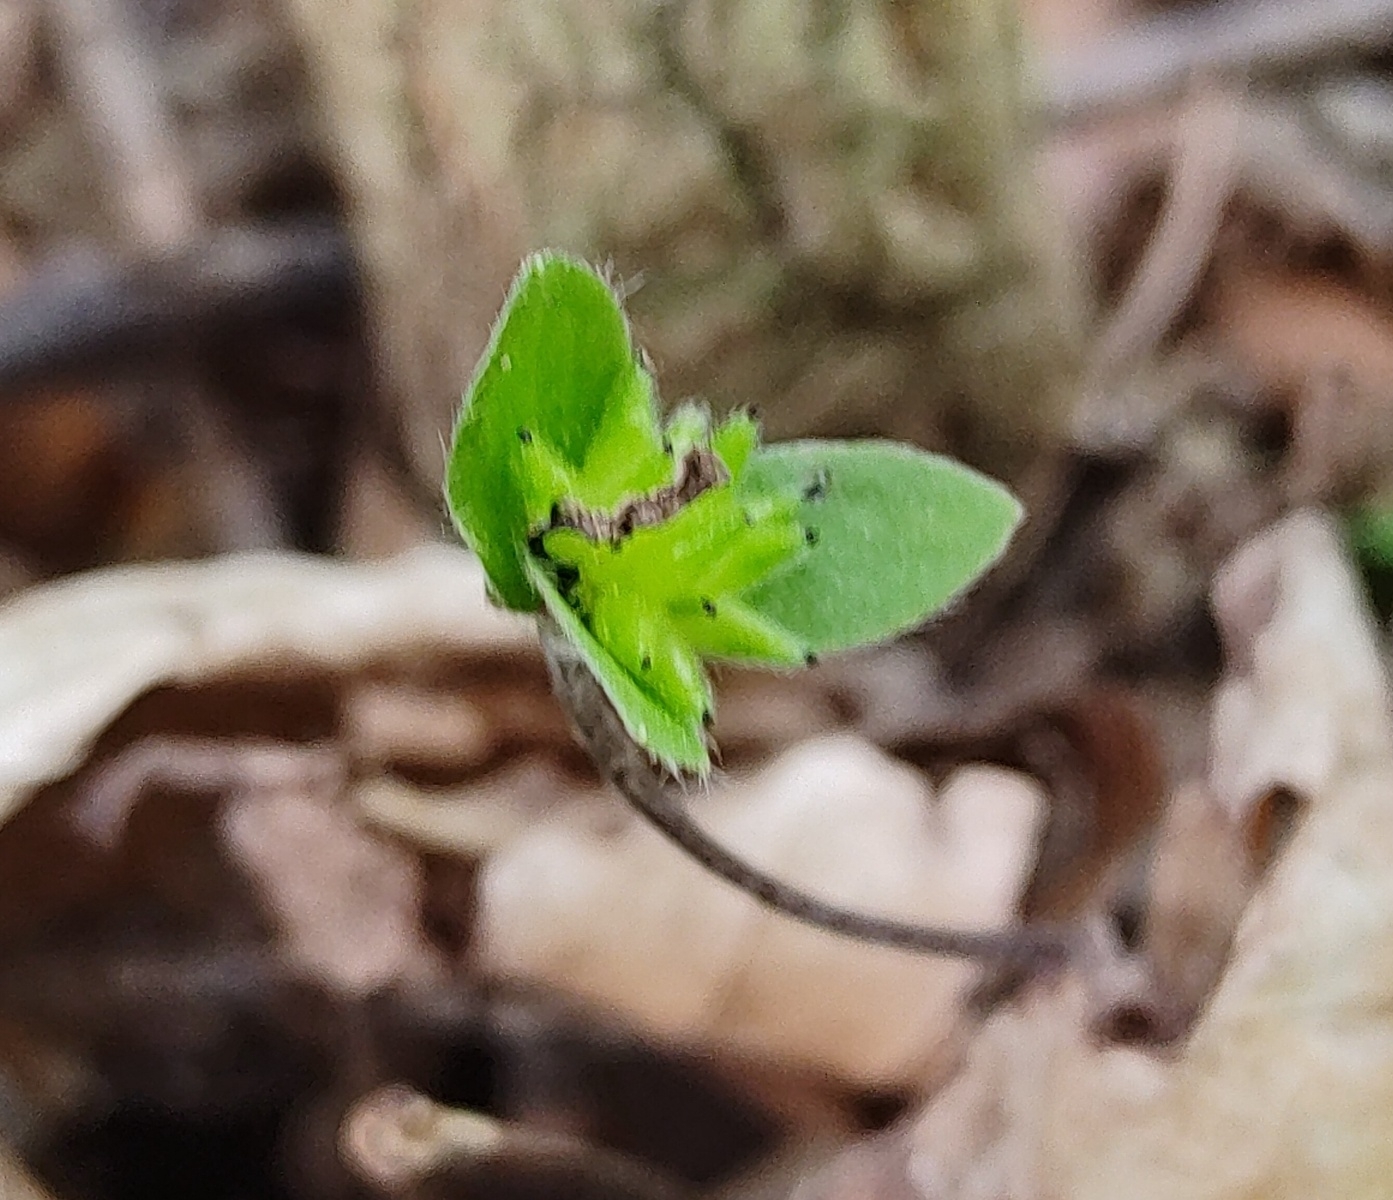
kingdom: Plantae
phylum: Tracheophyta
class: Magnoliopsida
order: Ranunculales
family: Ranunculaceae
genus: Hepatica
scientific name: Hepatica nobilis
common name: Liverleaf
